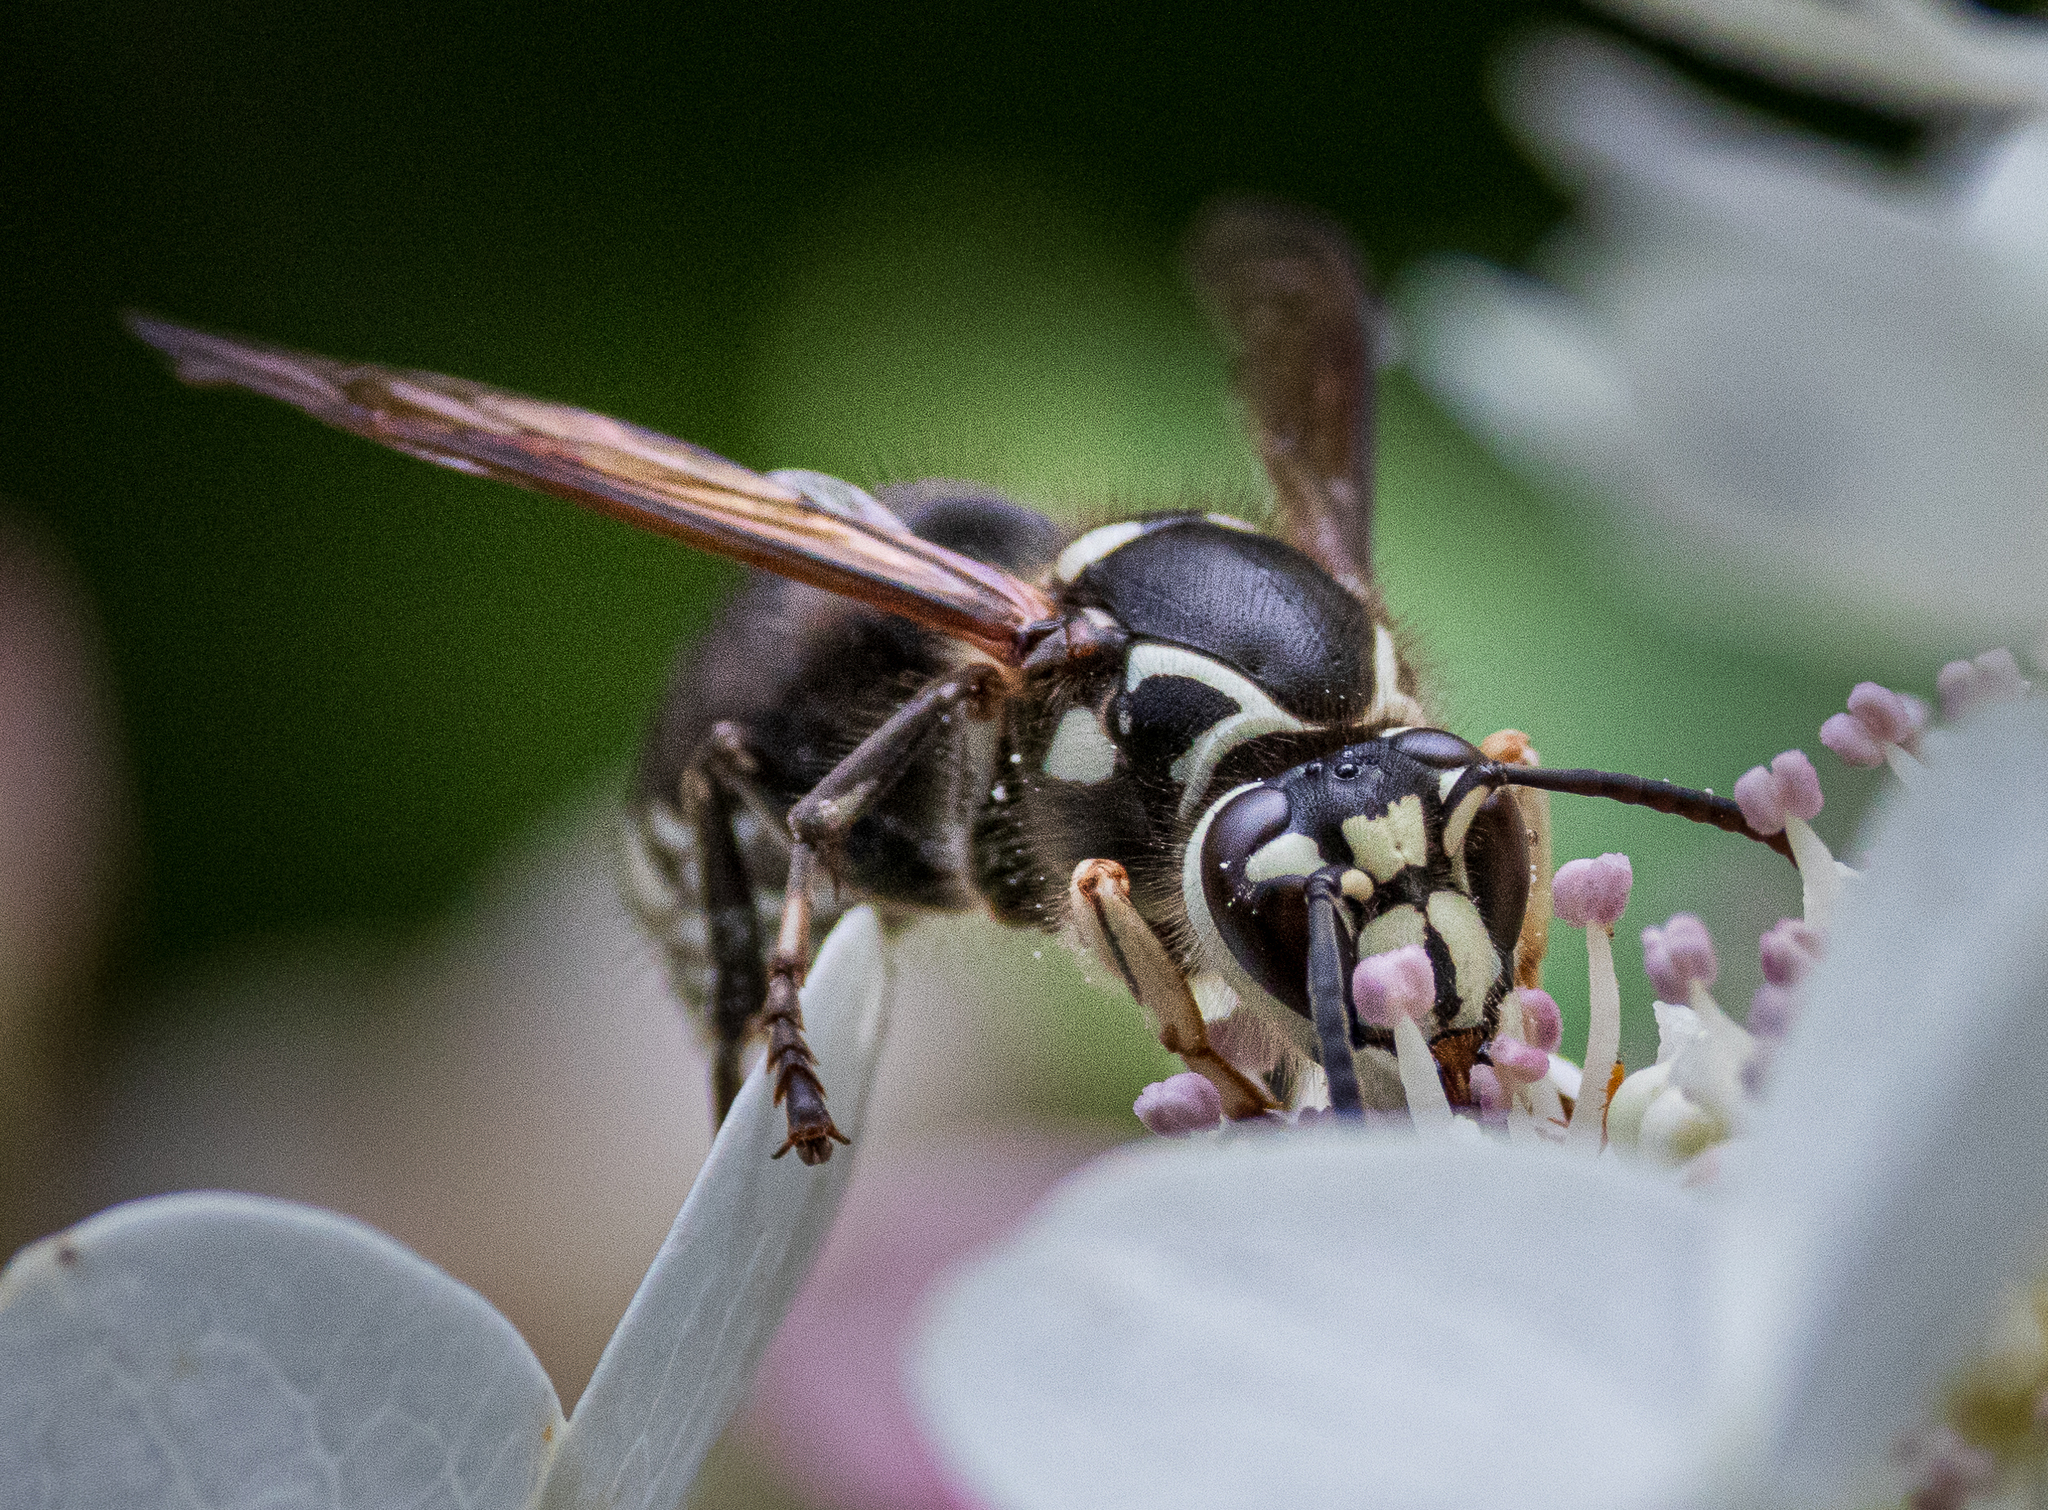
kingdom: Animalia
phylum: Arthropoda
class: Insecta
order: Hymenoptera
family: Vespidae
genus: Dolichovespula
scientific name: Dolichovespula maculata
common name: Bald-faced hornet
